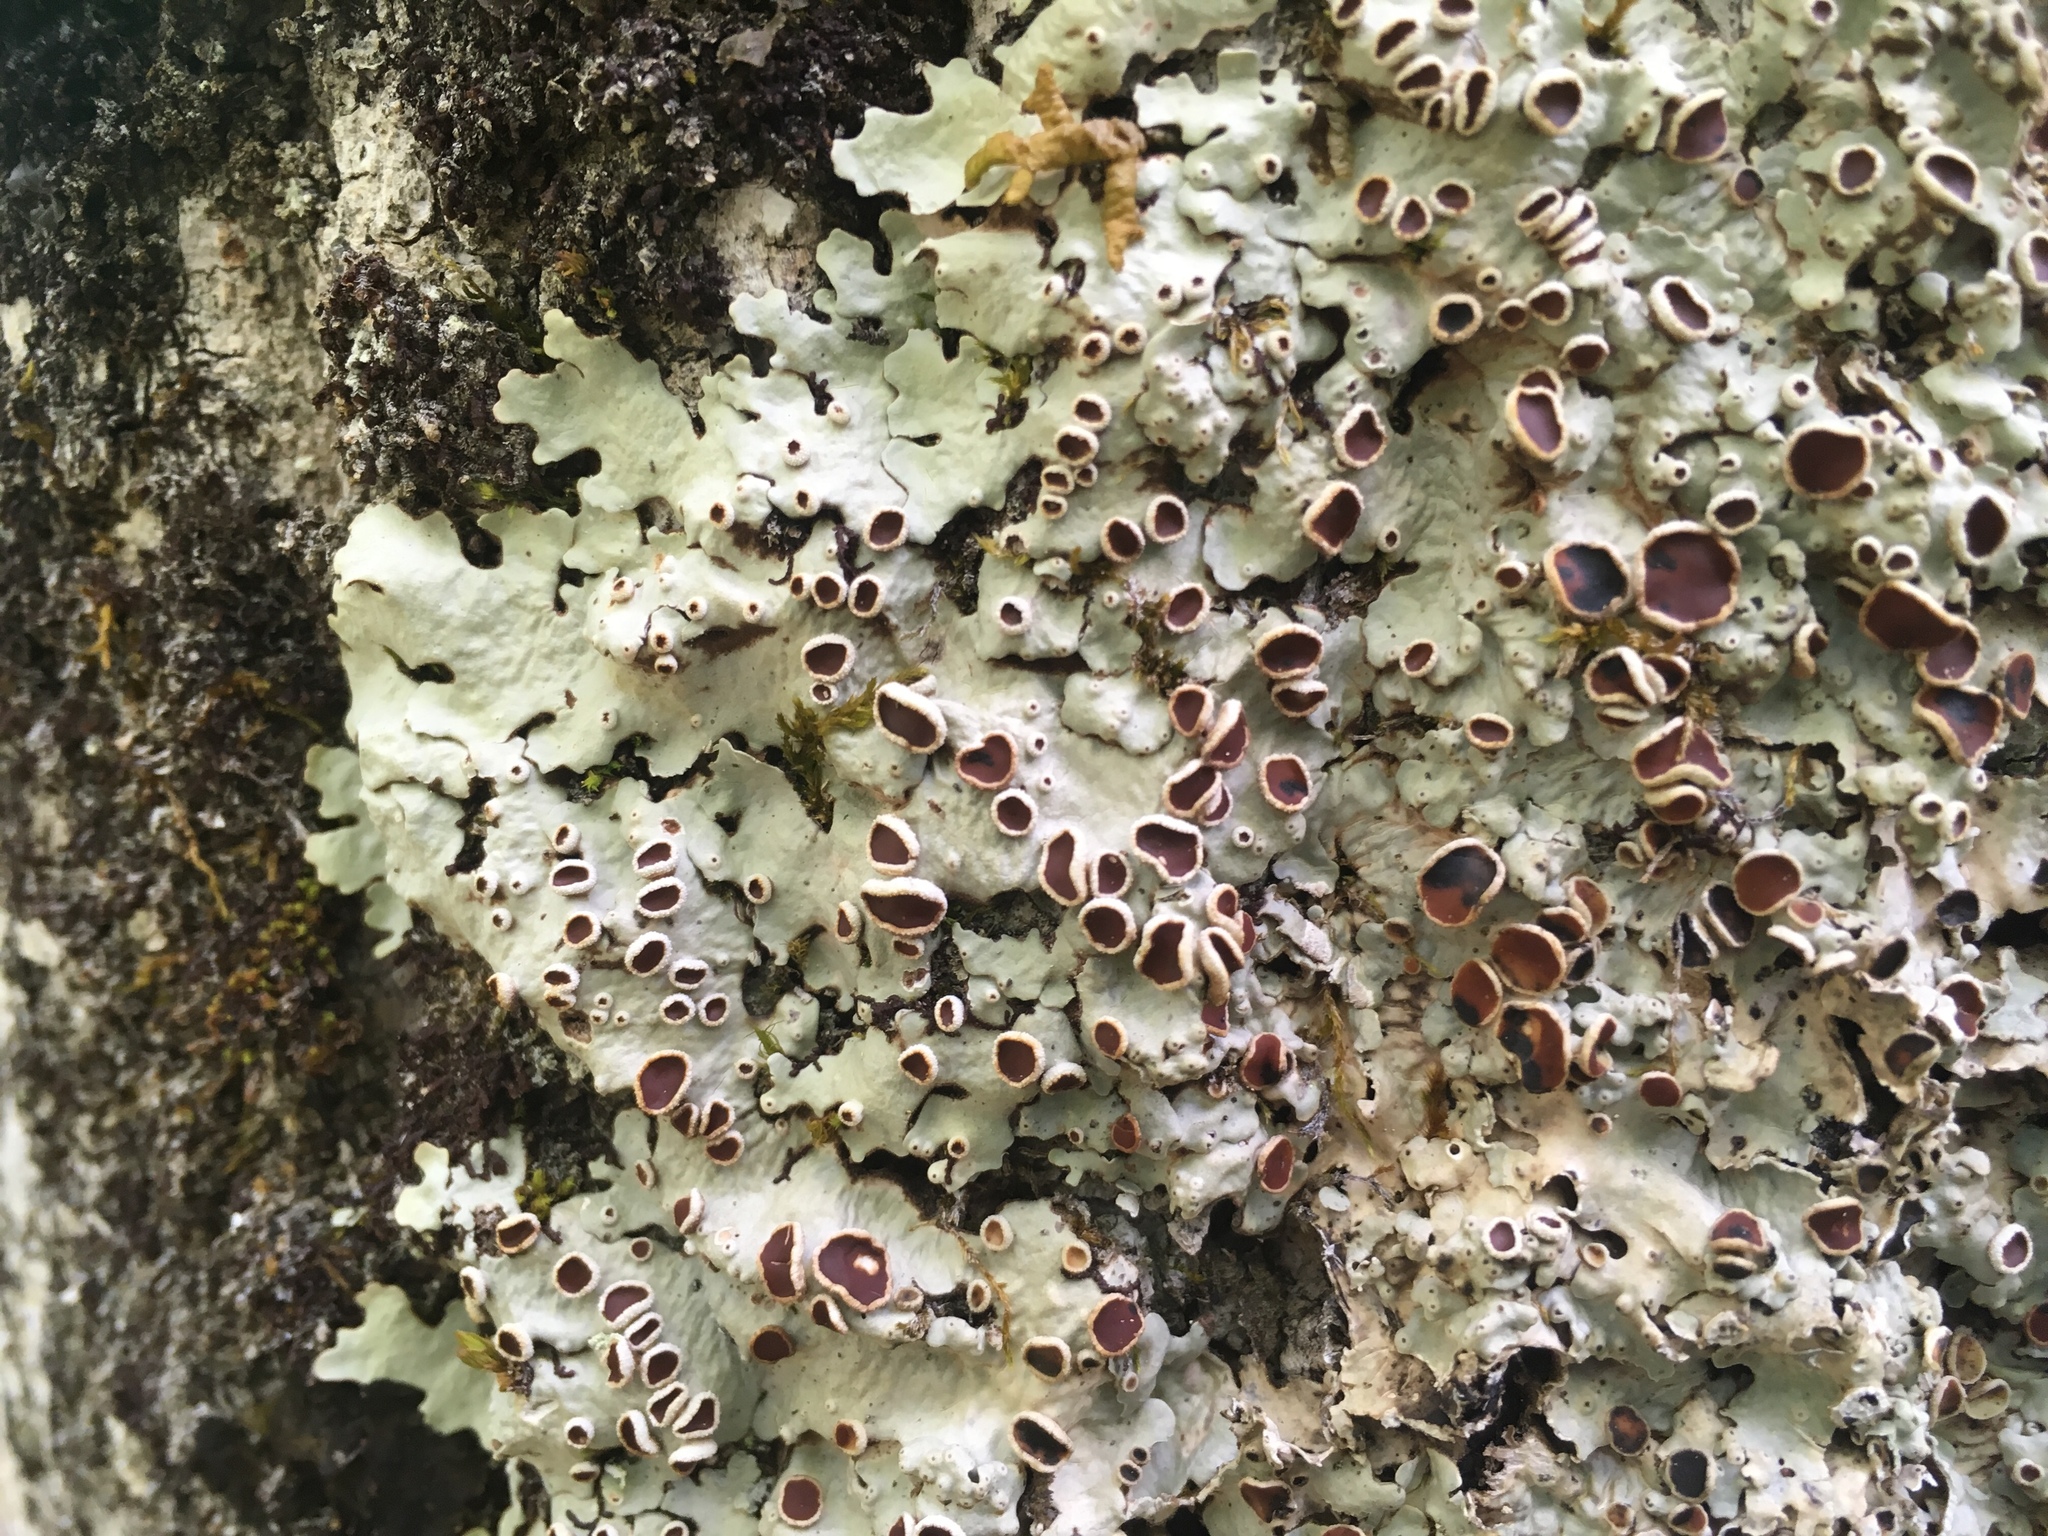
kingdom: Fungi
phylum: Ascomycota
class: Lecanoromycetes
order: Peltigerales
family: Lobariaceae
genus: Ricasolia
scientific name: Ricasolia quercizans
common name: Smooth lungwort
